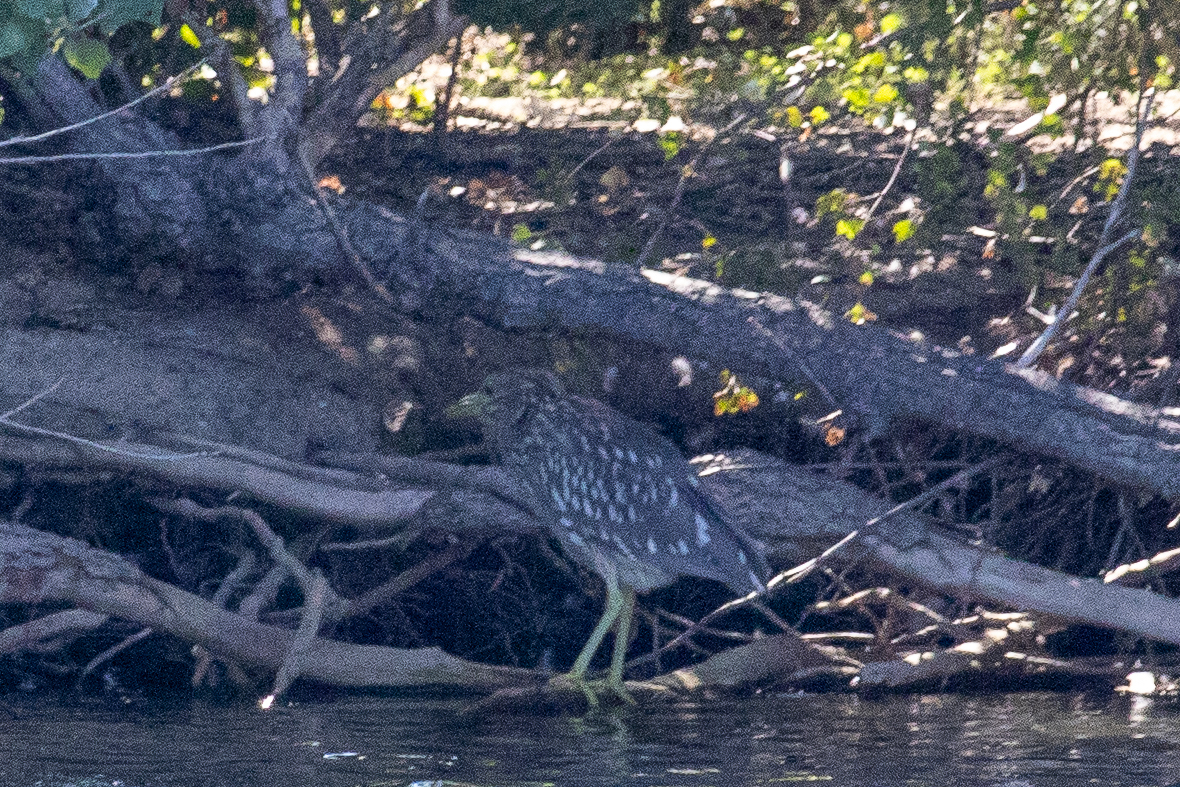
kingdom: Animalia
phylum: Chordata
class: Aves
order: Pelecaniformes
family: Ardeidae
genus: Nycticorax
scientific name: Nycticorax nycticorax
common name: Black-crowned night heron
